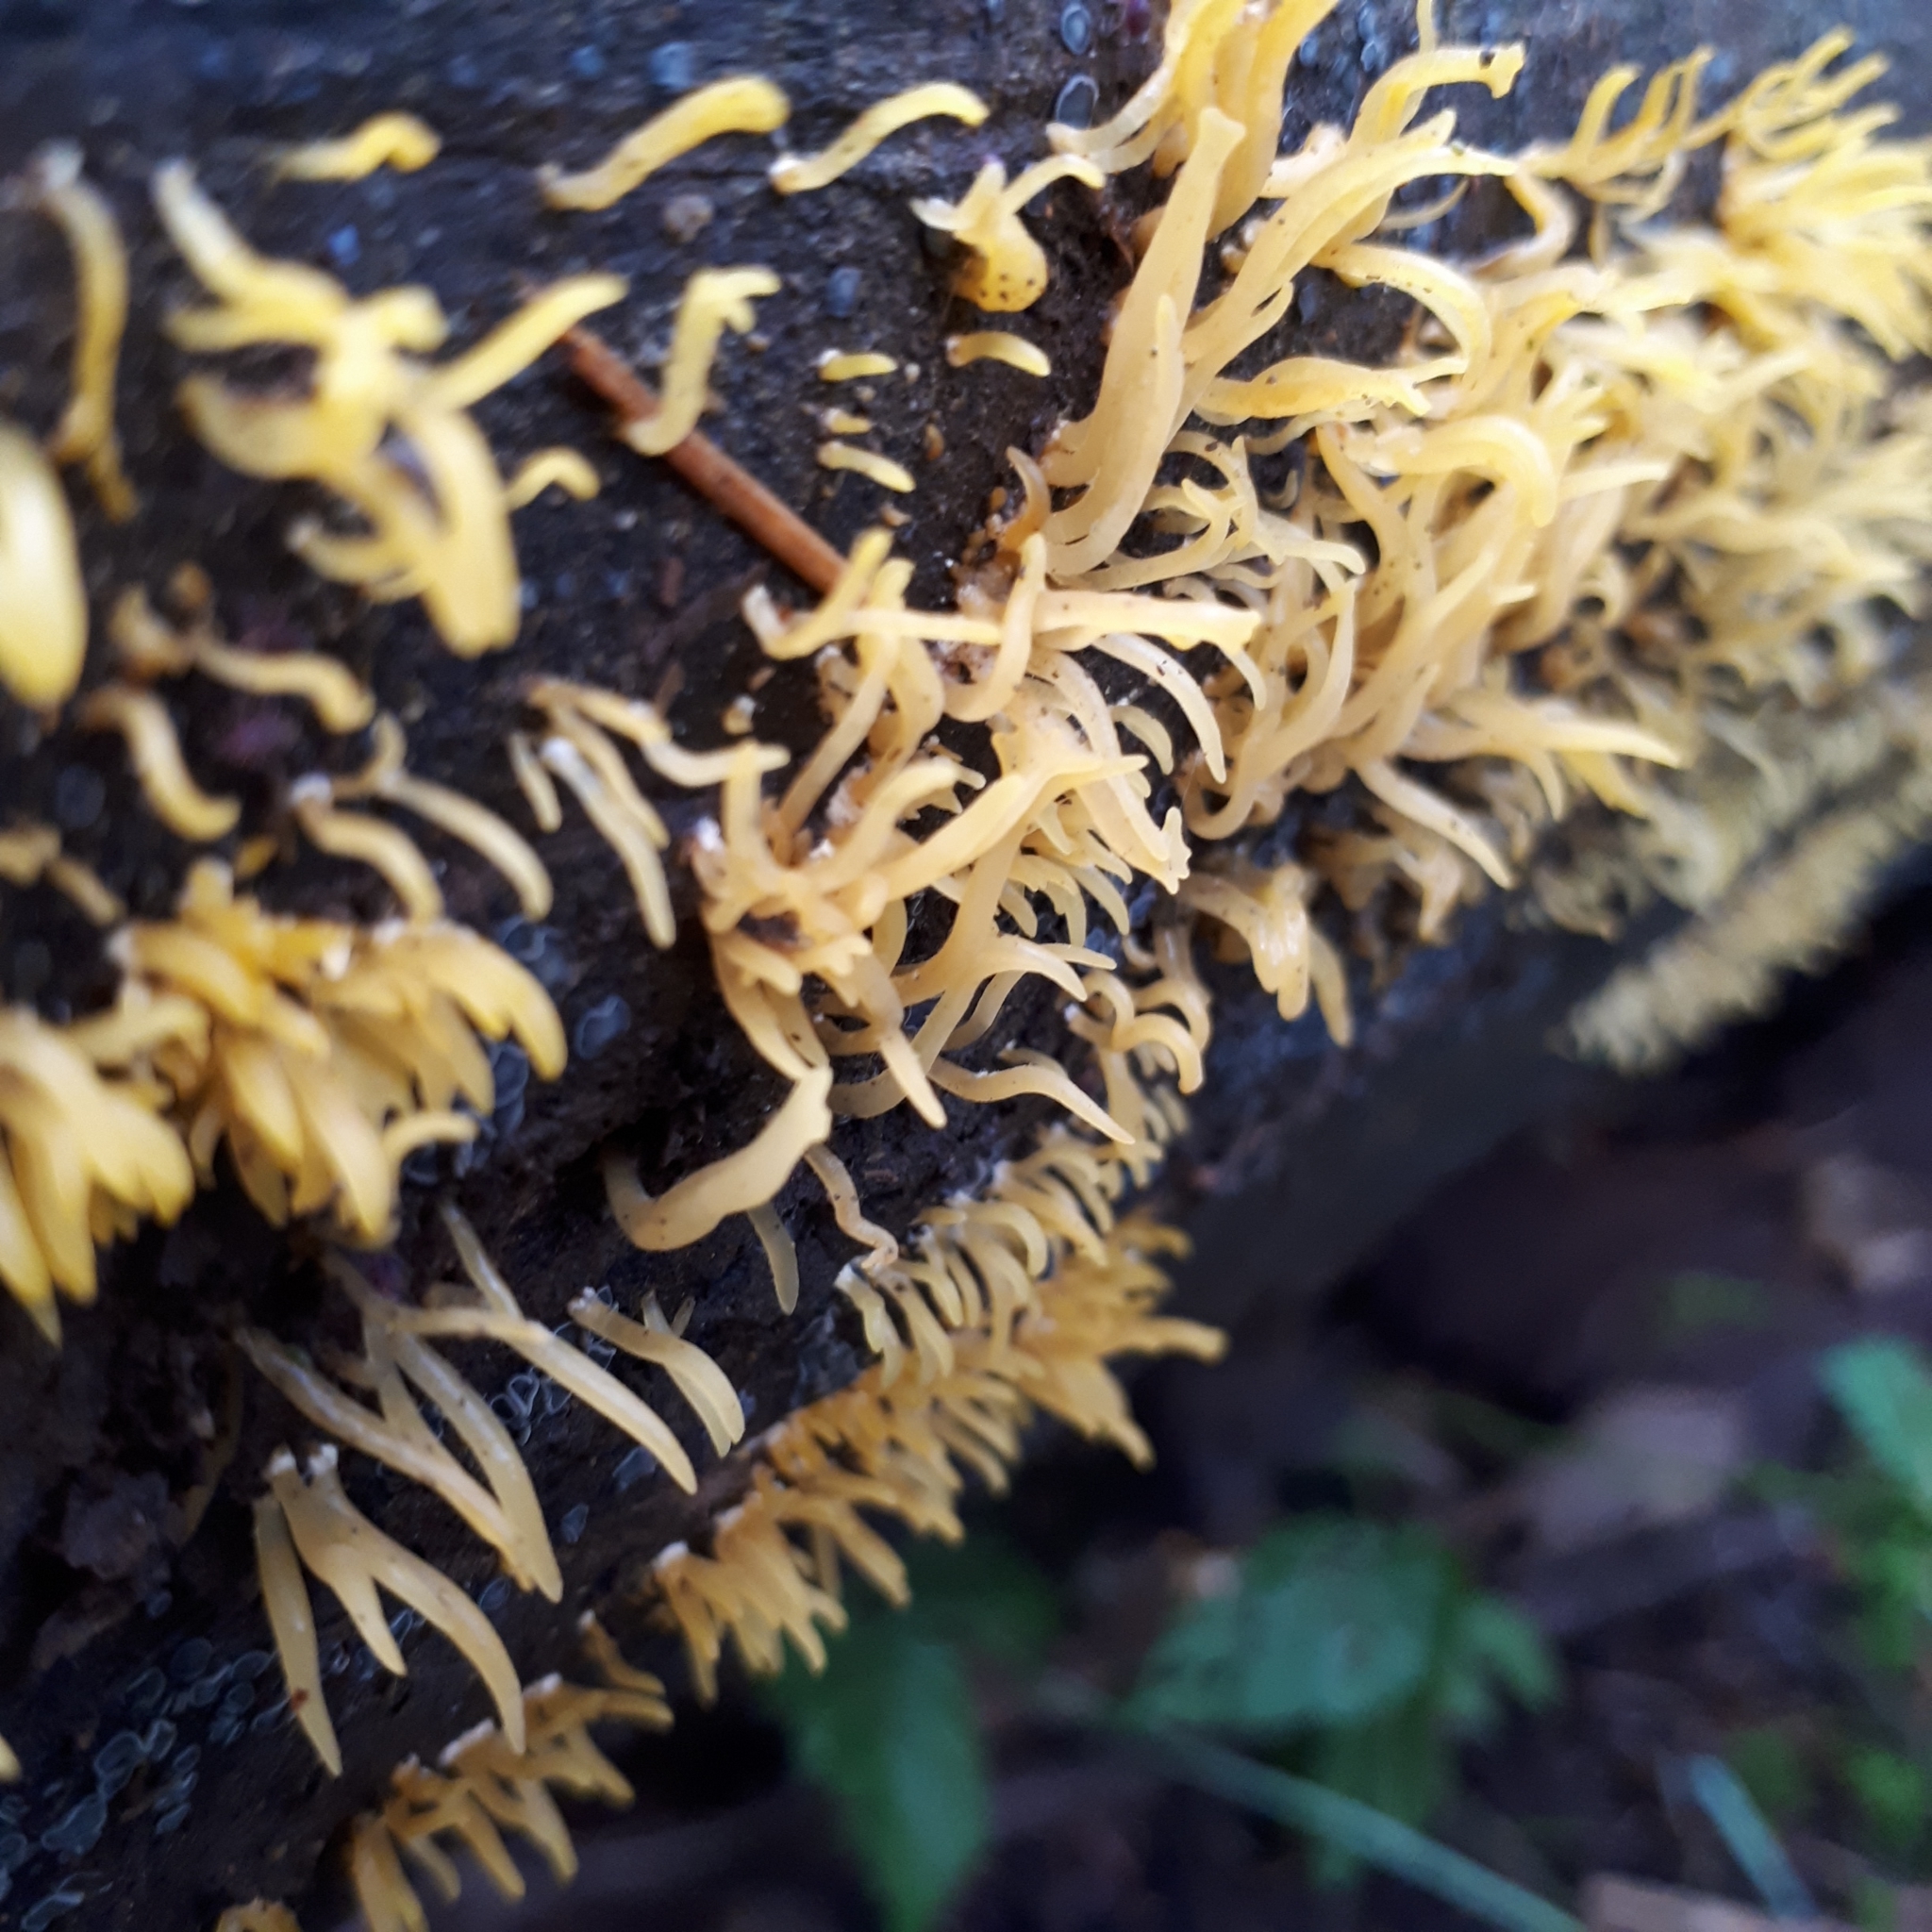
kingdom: Fungi
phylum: Basidiomycota
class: Dacrymycetes
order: Dacrymycetales
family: Dacrymycetaceae
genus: Calocera
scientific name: Calocera cornea
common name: Small stagshorn
